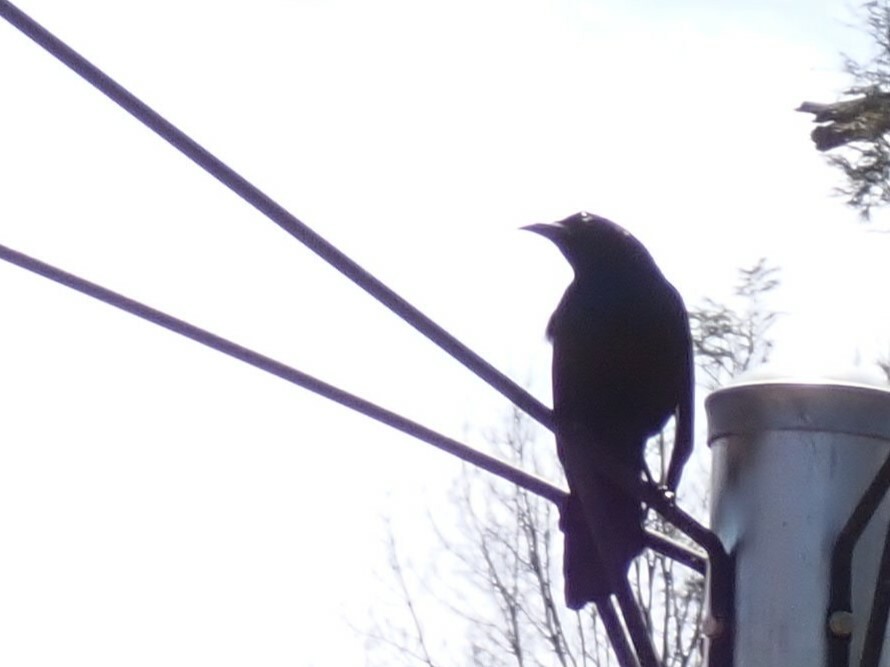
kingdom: Animalia
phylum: Chordata
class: Aves
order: Passeriformes
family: Icteridae
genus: Quiscalus
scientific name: Quiscalus quiscula
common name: Common grackle
